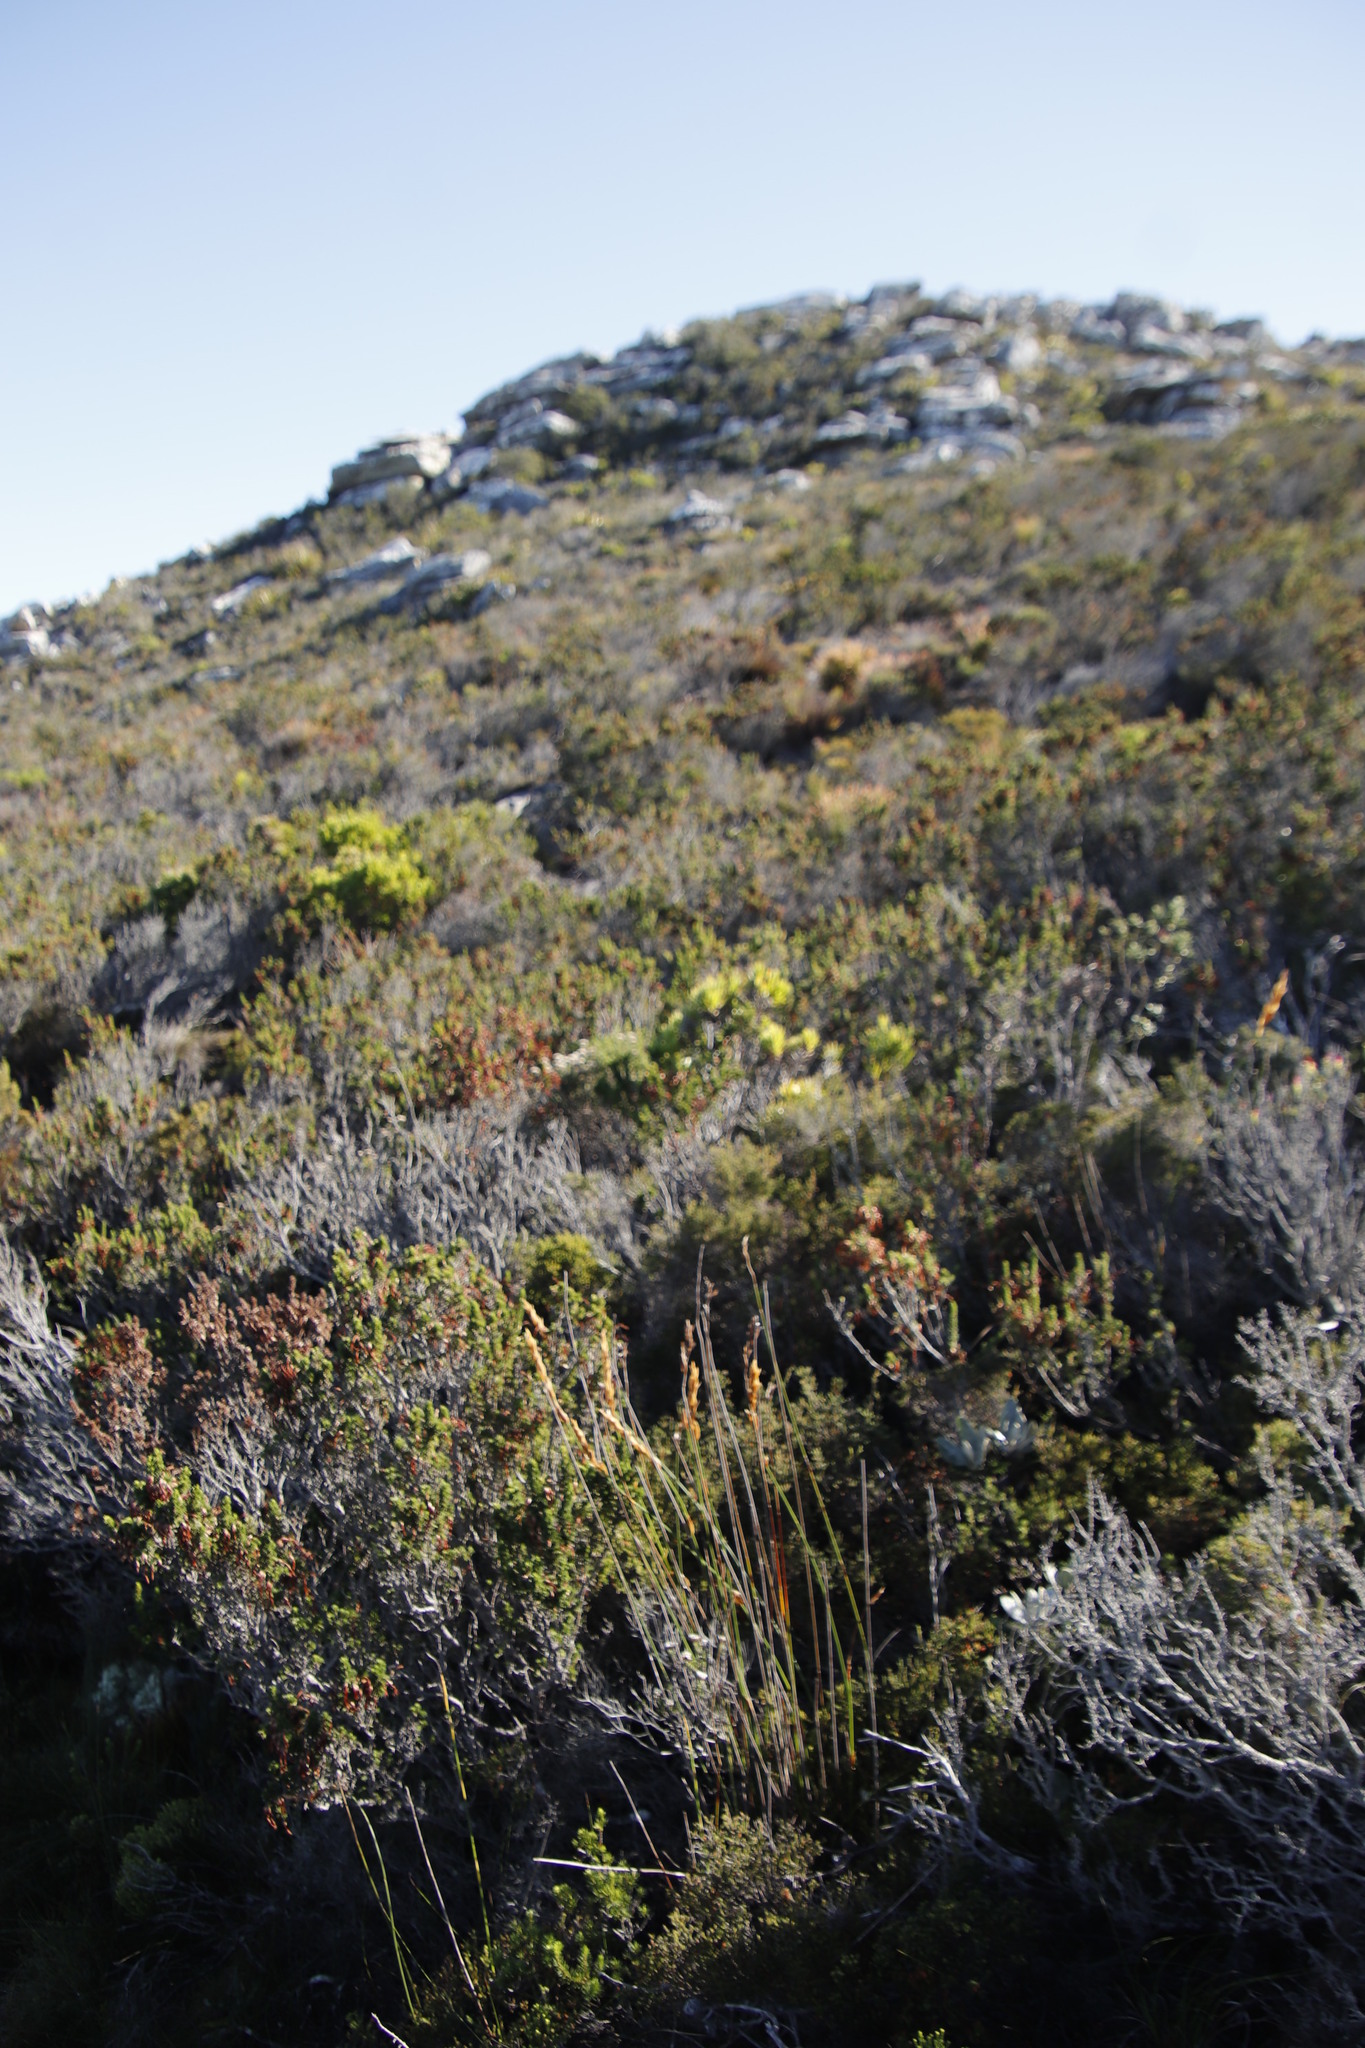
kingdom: Plantae
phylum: Tracheophyta
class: Magnoliopsida
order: Ericales
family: Ericaceae
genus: Erica
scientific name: Erica coccinea
